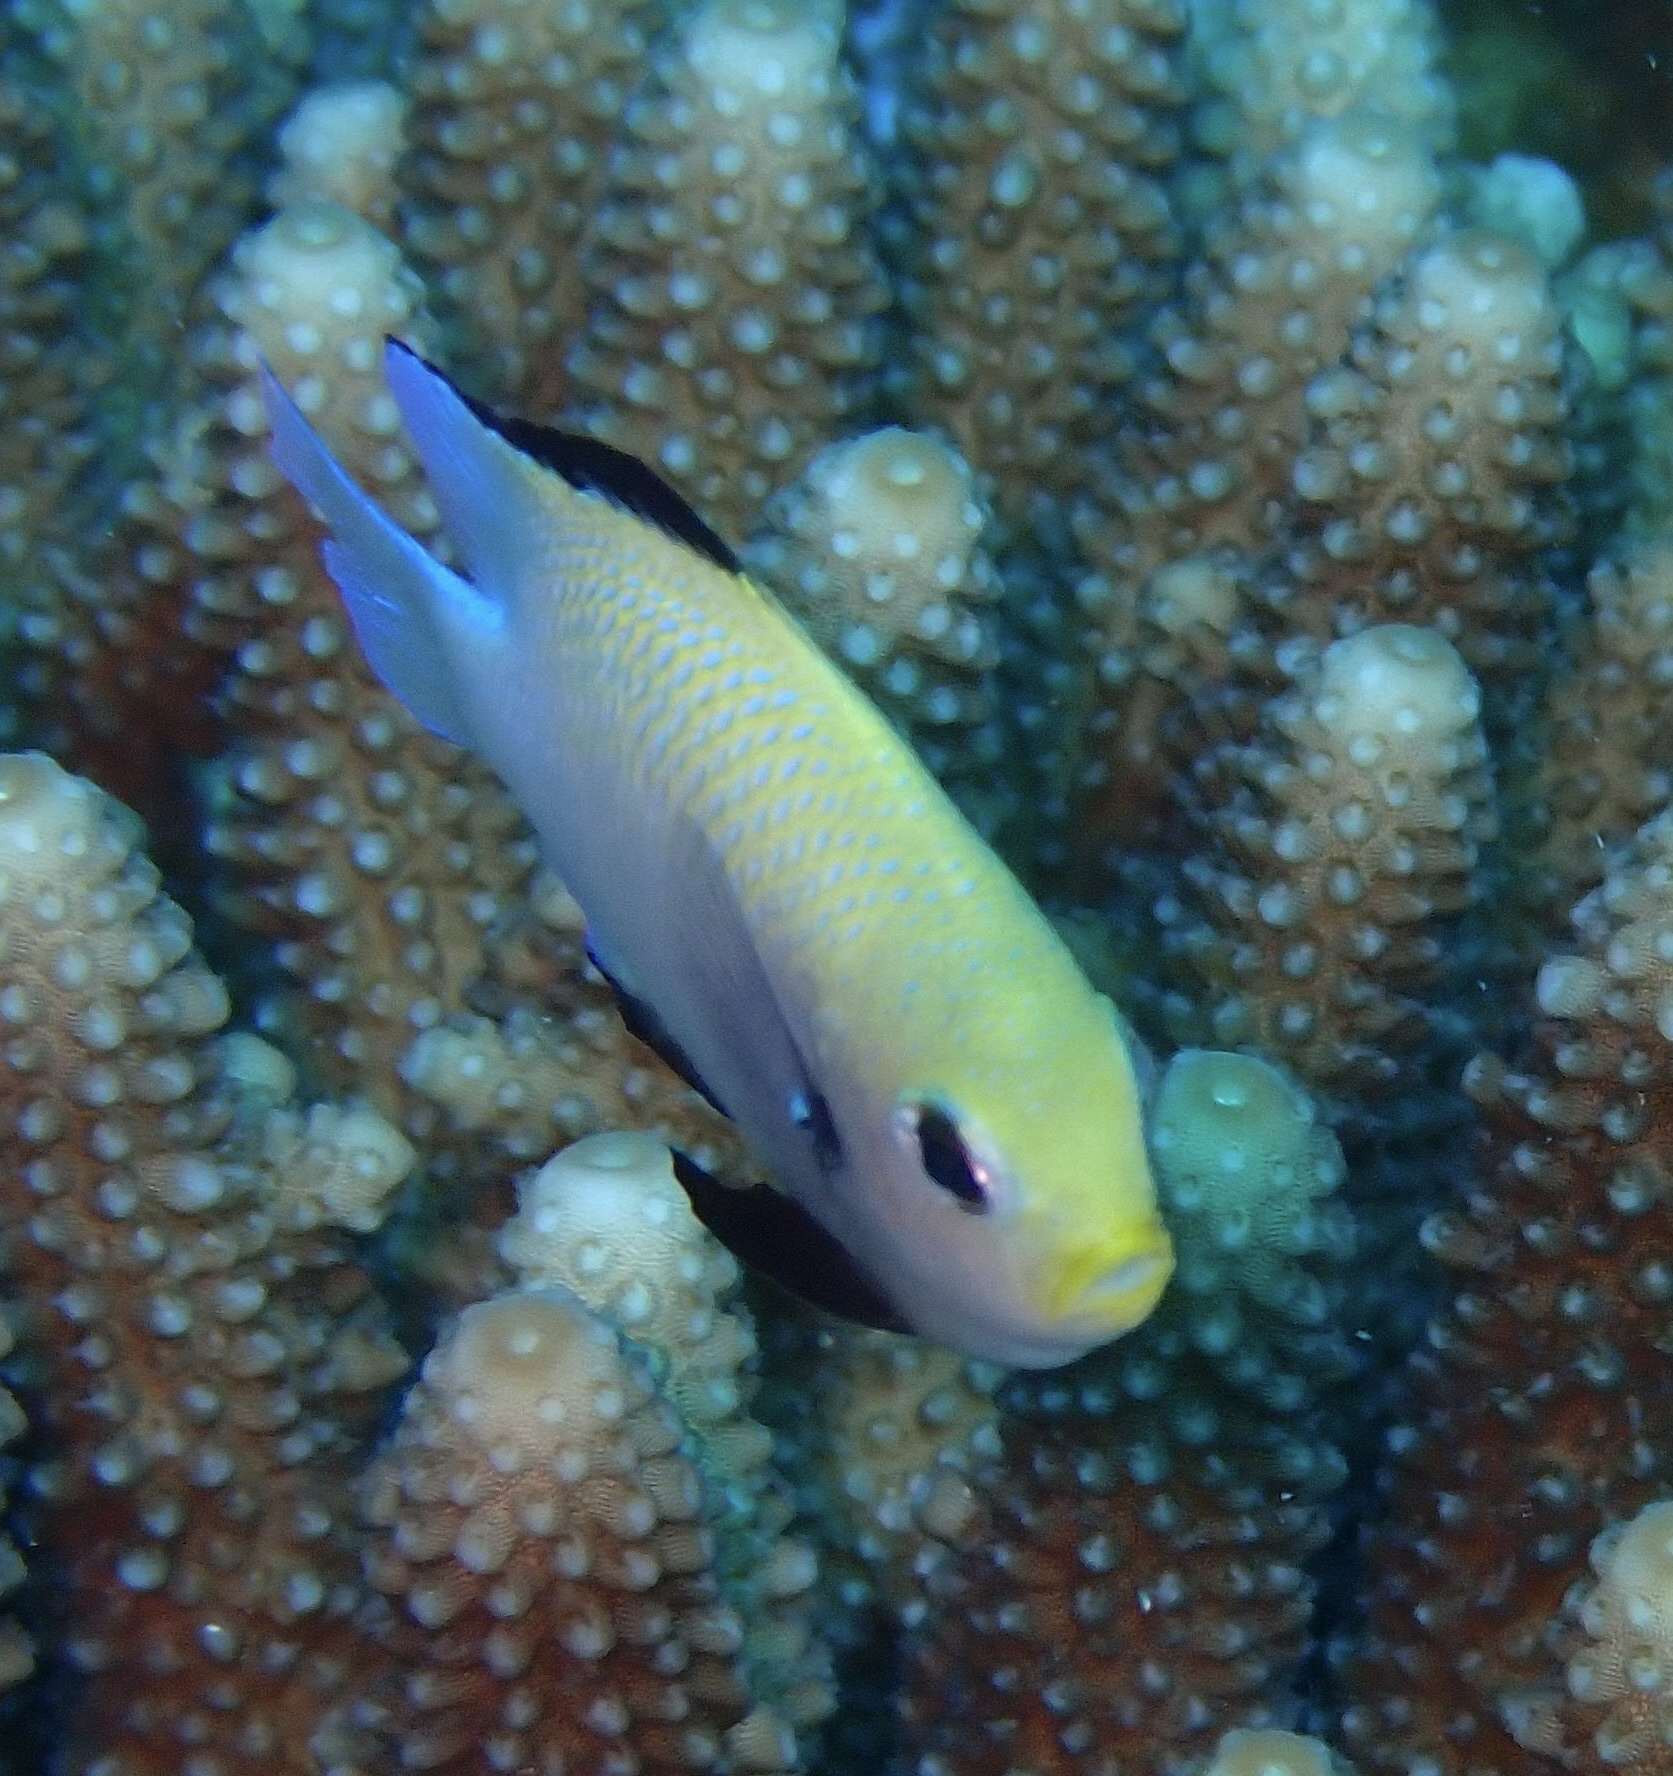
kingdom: Animalia
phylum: Chordata
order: Perciformes
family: Pomacentridae
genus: Dascyllus
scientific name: Dascyllus marginatus
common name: Red sea dascyllus
